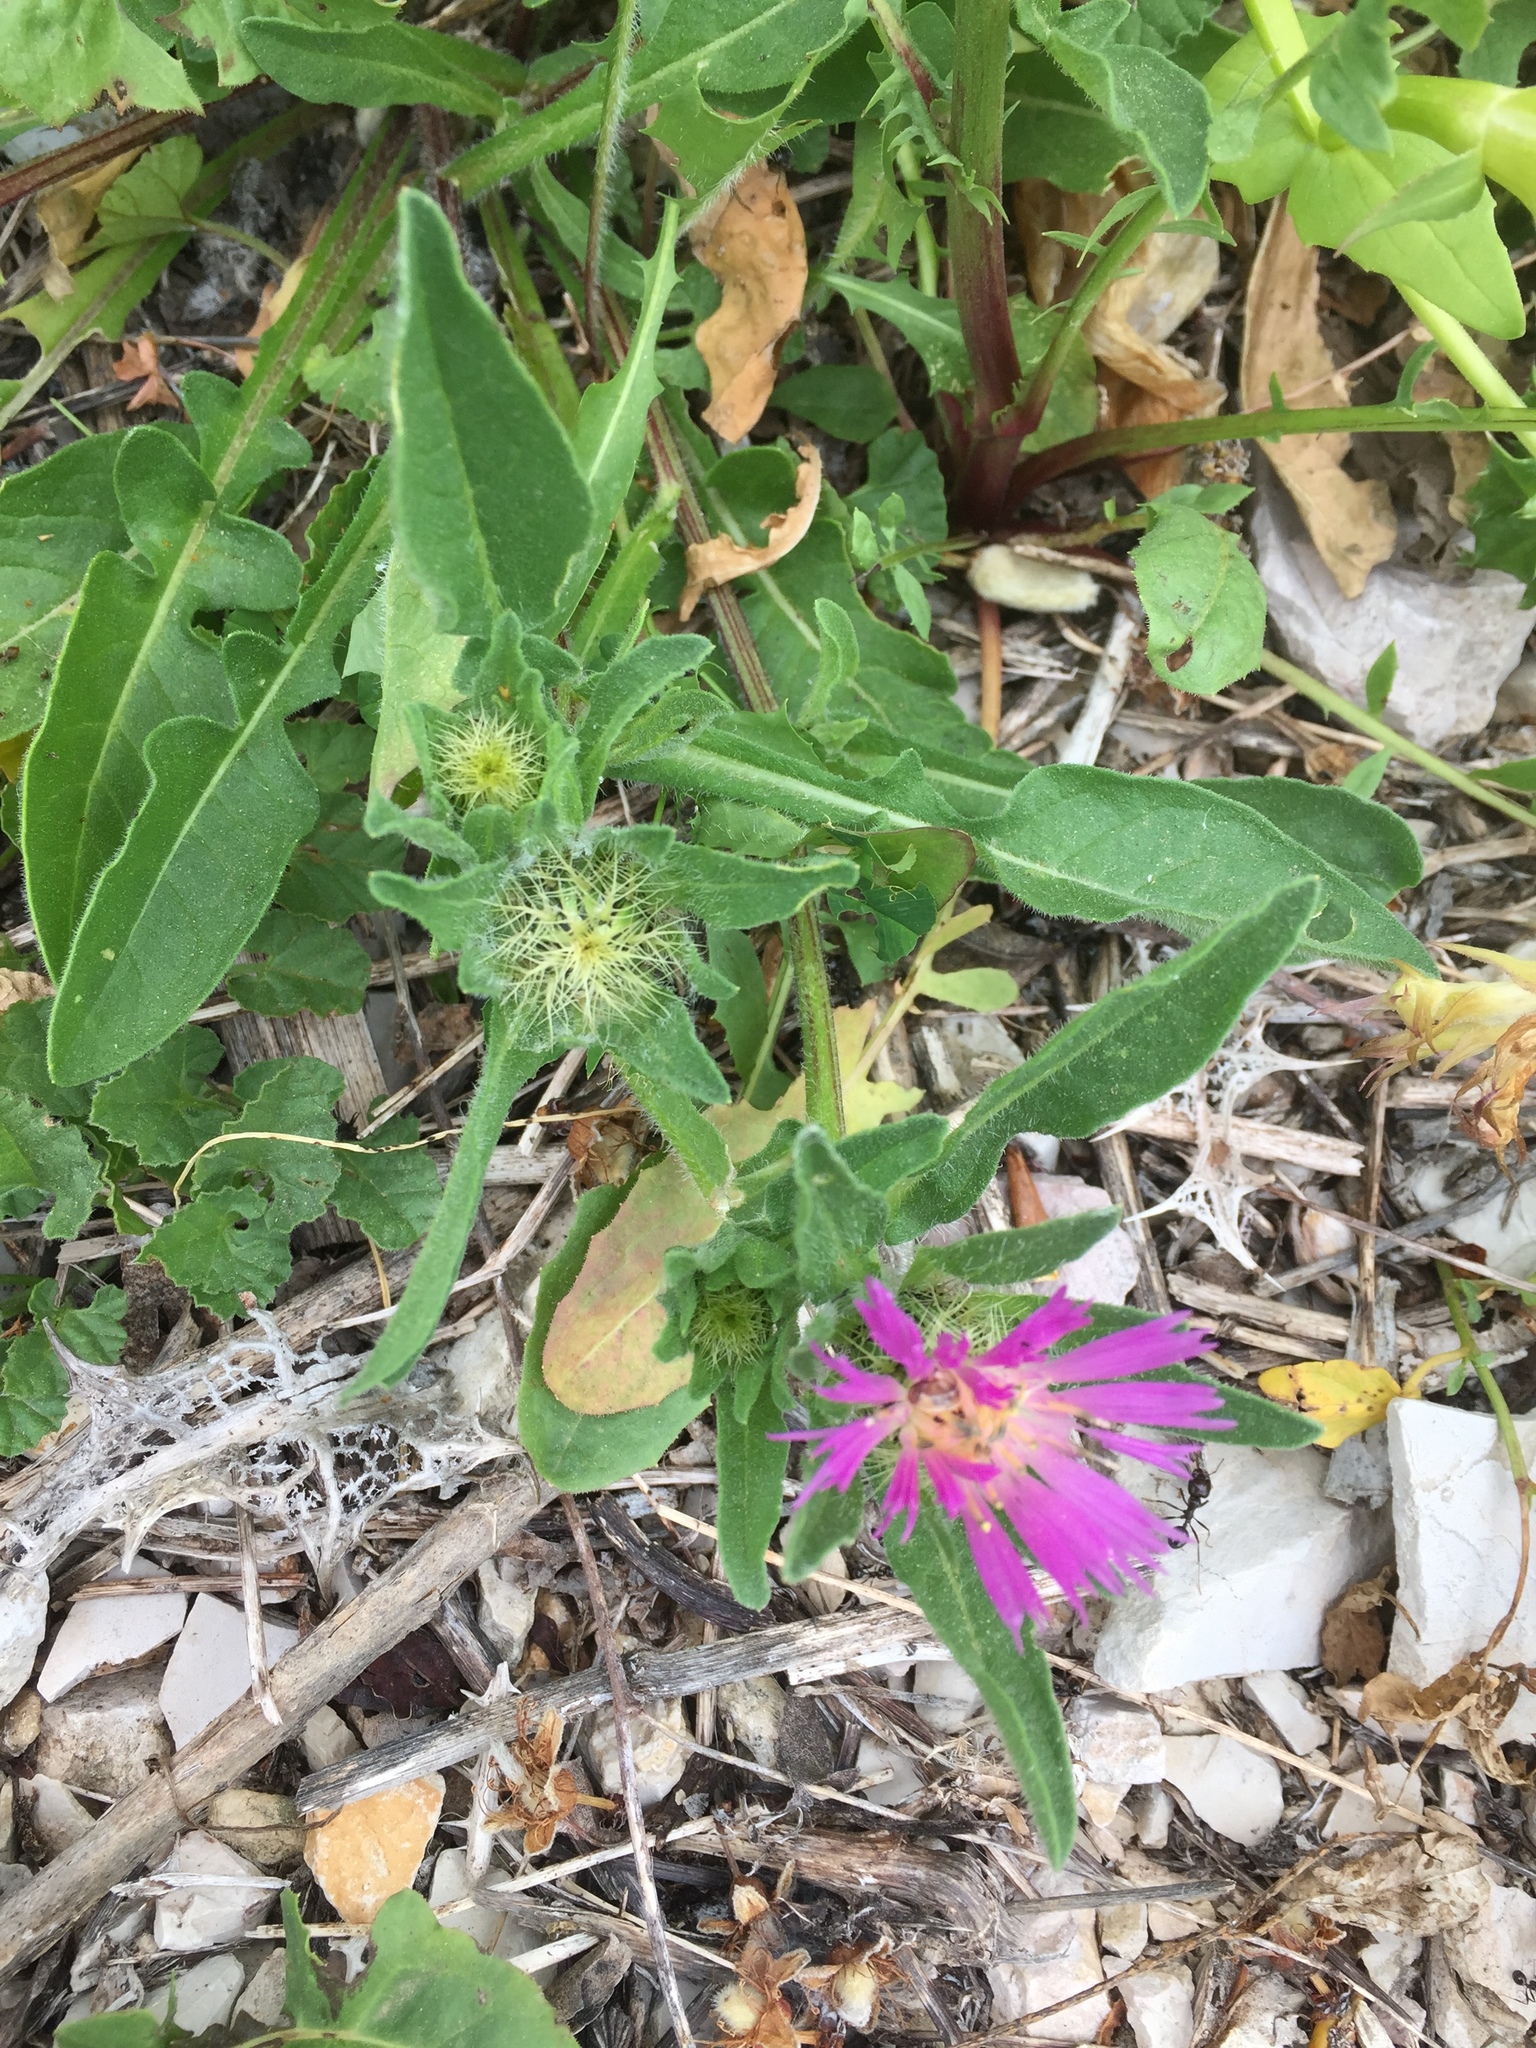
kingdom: Plantae
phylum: Tracheophyta
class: Magnoliopsida
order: Asterales
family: Asteraceae
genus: Centaurea
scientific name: Centaurea pullata
